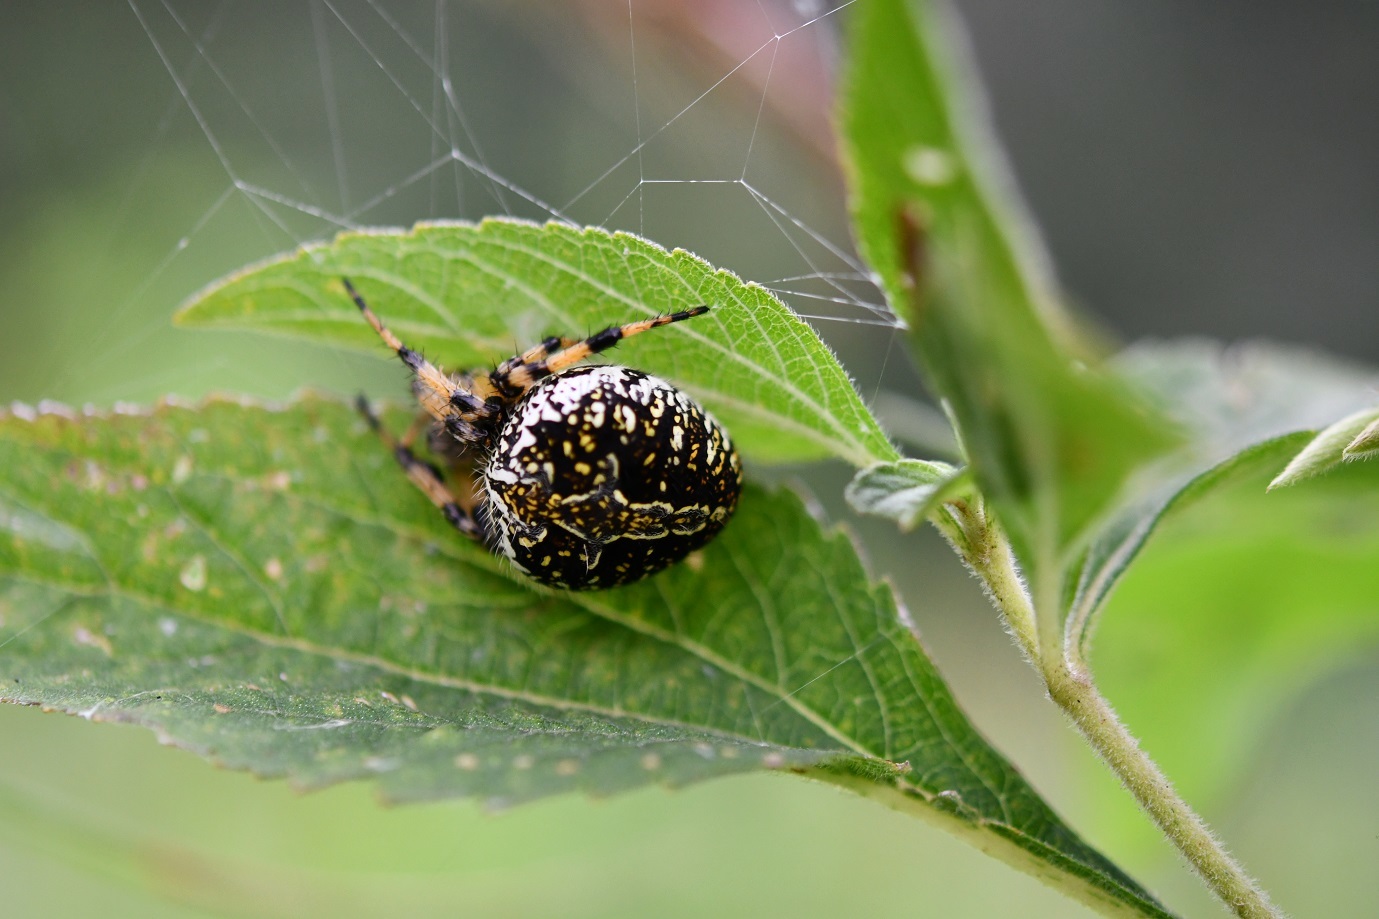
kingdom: Animalia
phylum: Arthropoda
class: Arachnida
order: Araneae
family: Araneidae
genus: Neoscona
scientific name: Neoscona orizabensis
